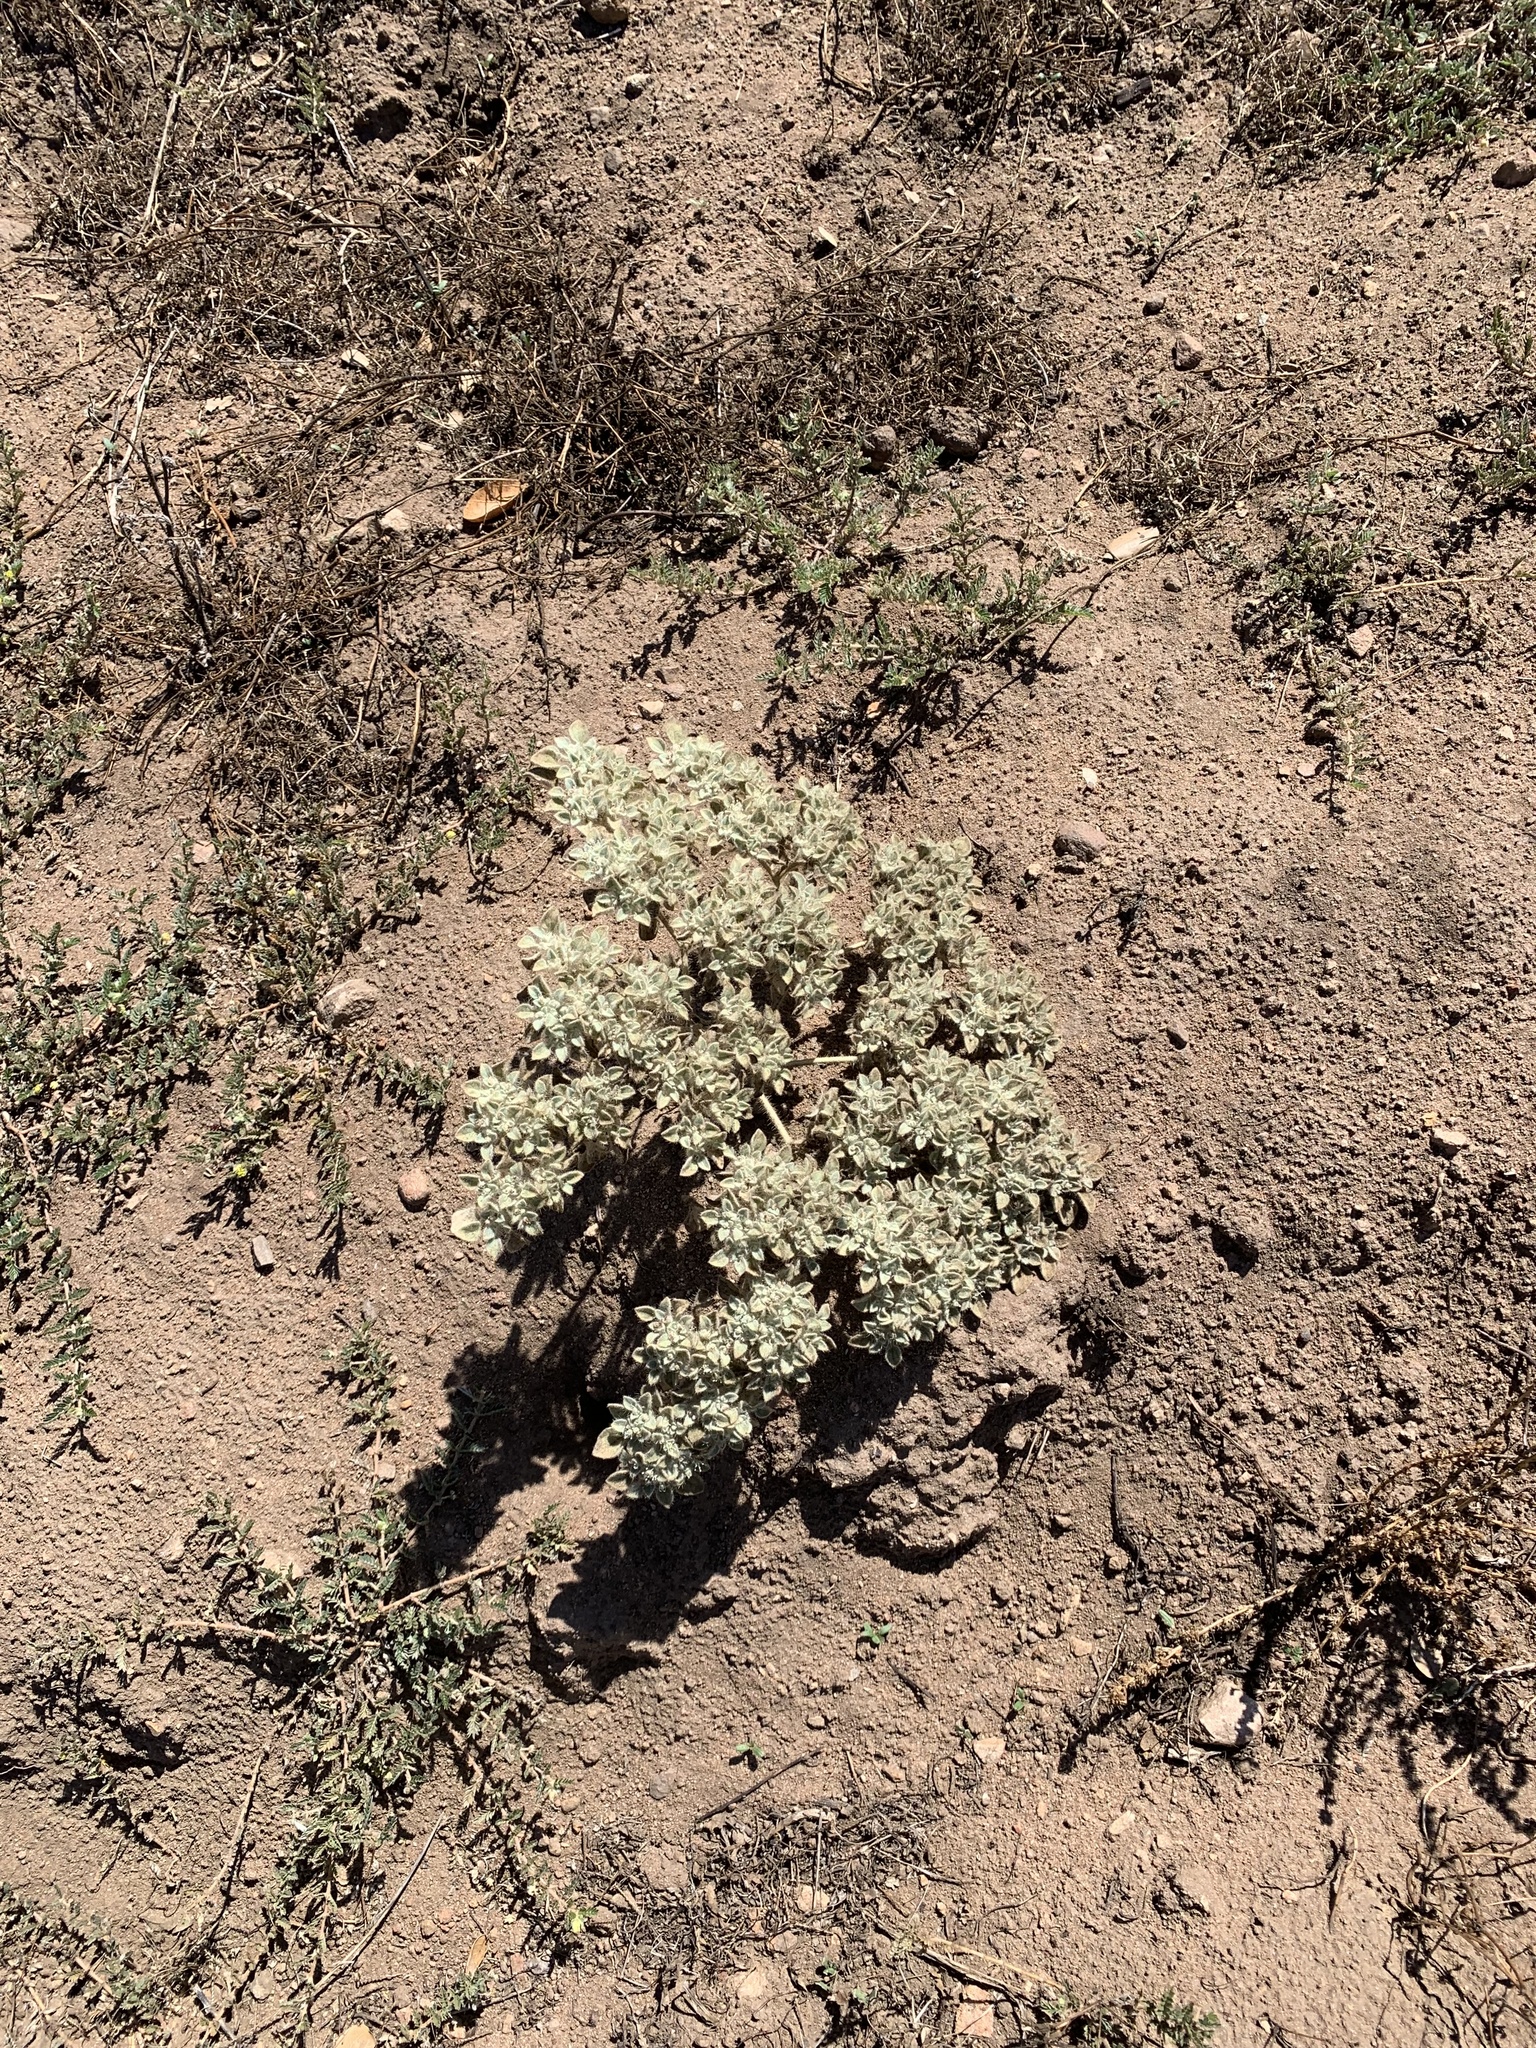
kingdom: Plantae
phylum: Tracheophyta
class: Magnoliopsida
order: Malpighiales
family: Euphorbiaceae
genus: Croton
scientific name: Croton setiger
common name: Dove weed
